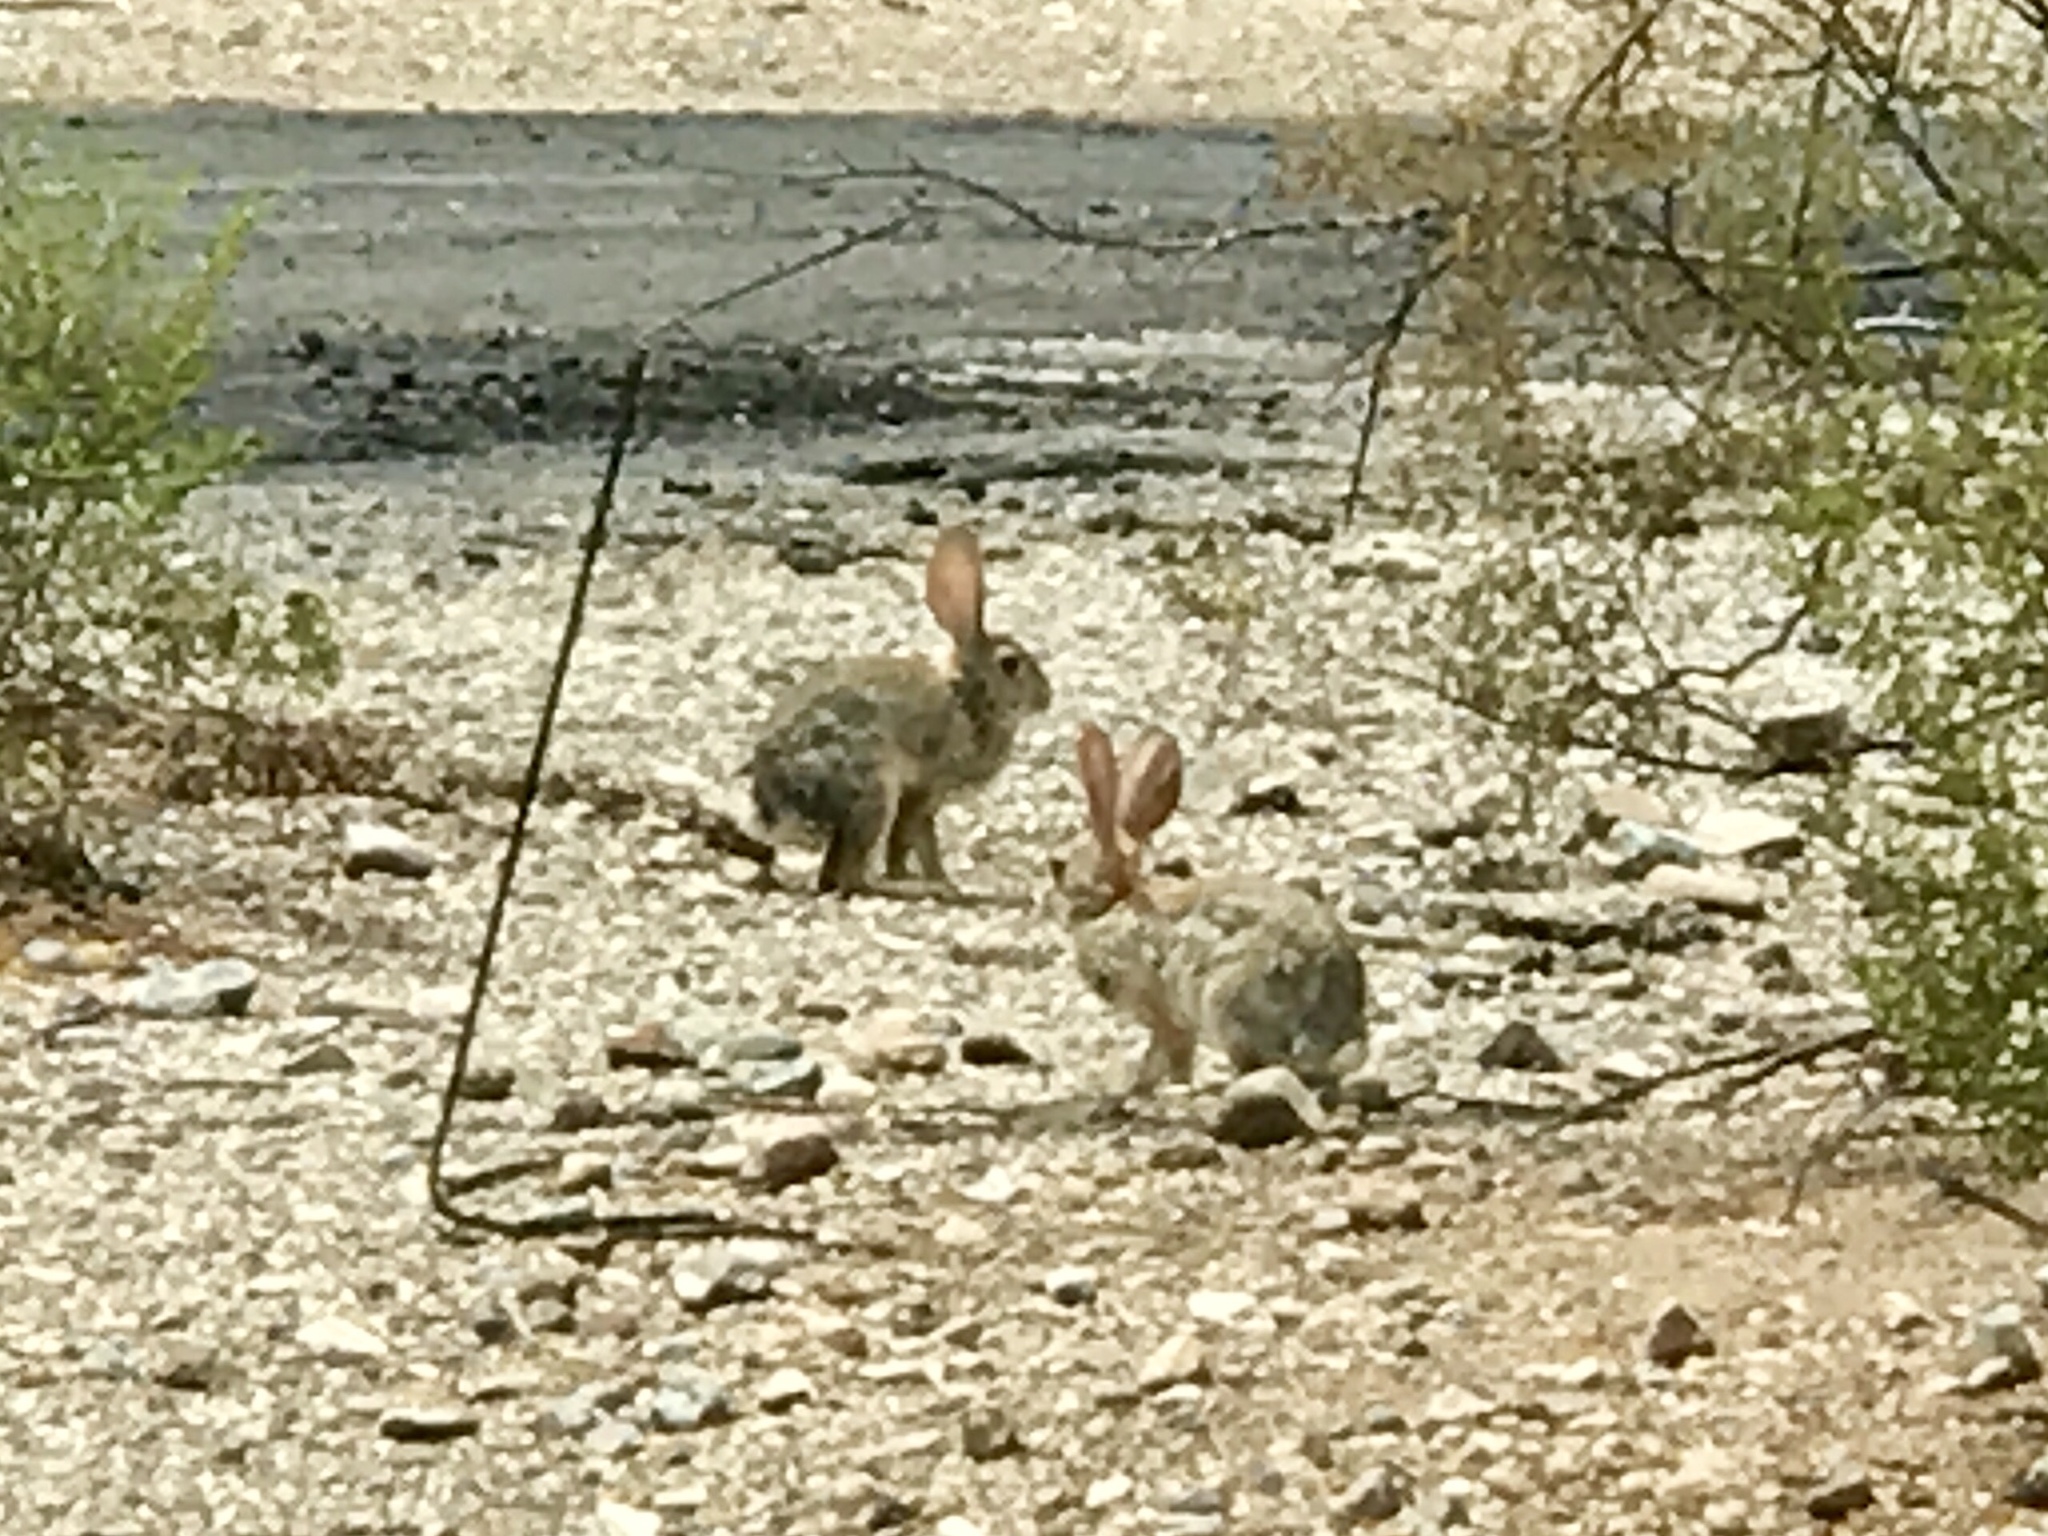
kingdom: Animalia
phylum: Chordata
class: Mammalia
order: Lagomorpha
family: Leporidae
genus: Sylvilagus
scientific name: Sylvilagus audubonii
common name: Desert cottontail
